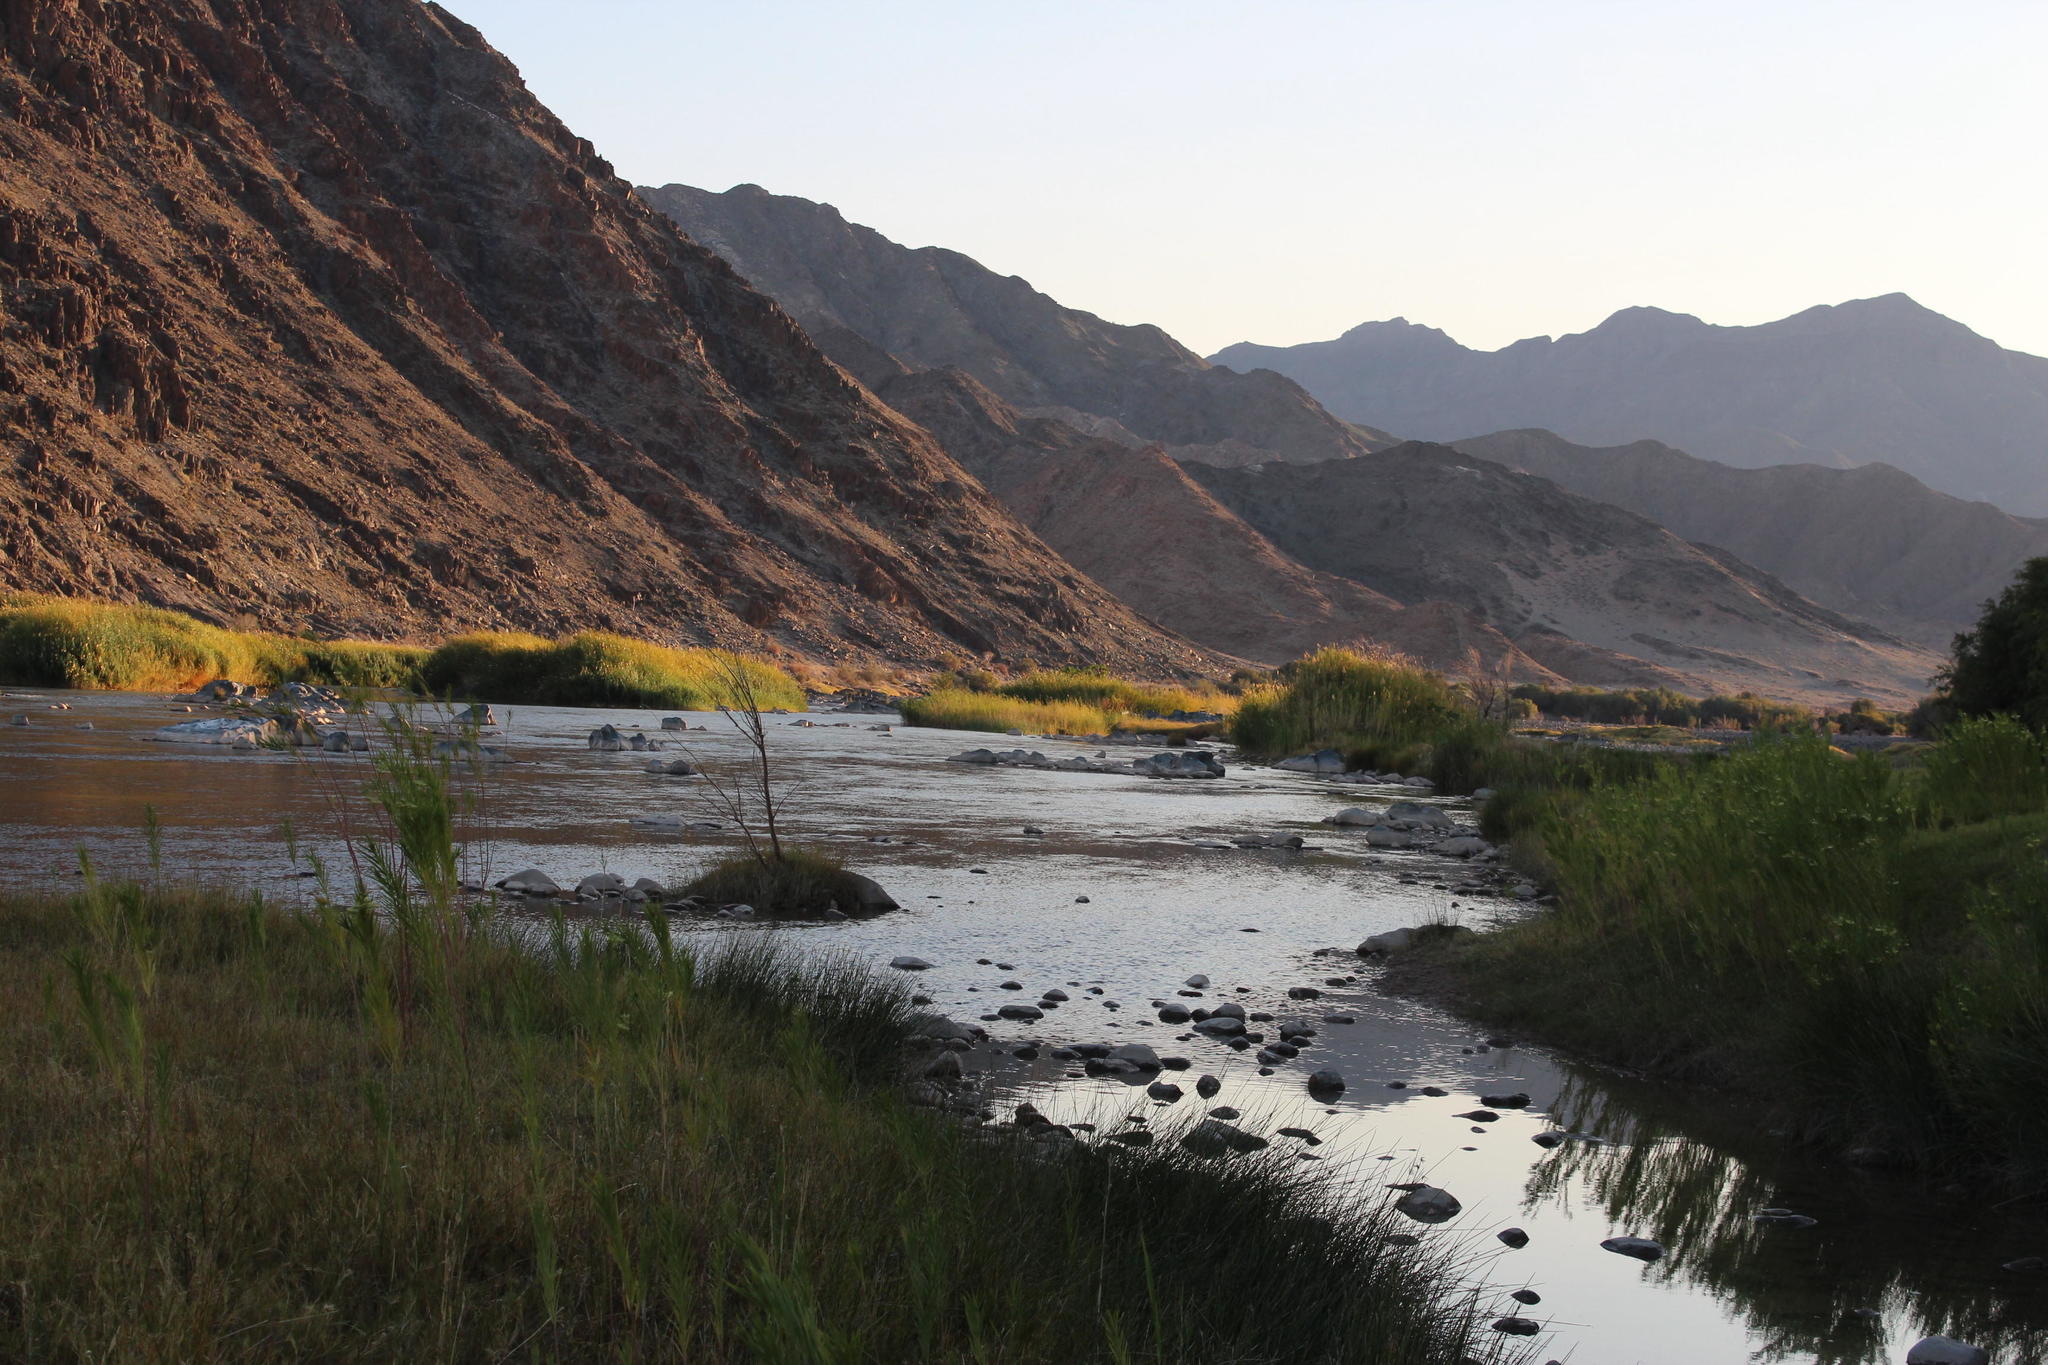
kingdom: Plantae
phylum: Tracheophyta
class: Liliopsida
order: Poales
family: Poaceae
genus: Phragmites
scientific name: Phragmites australis
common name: Common reed
